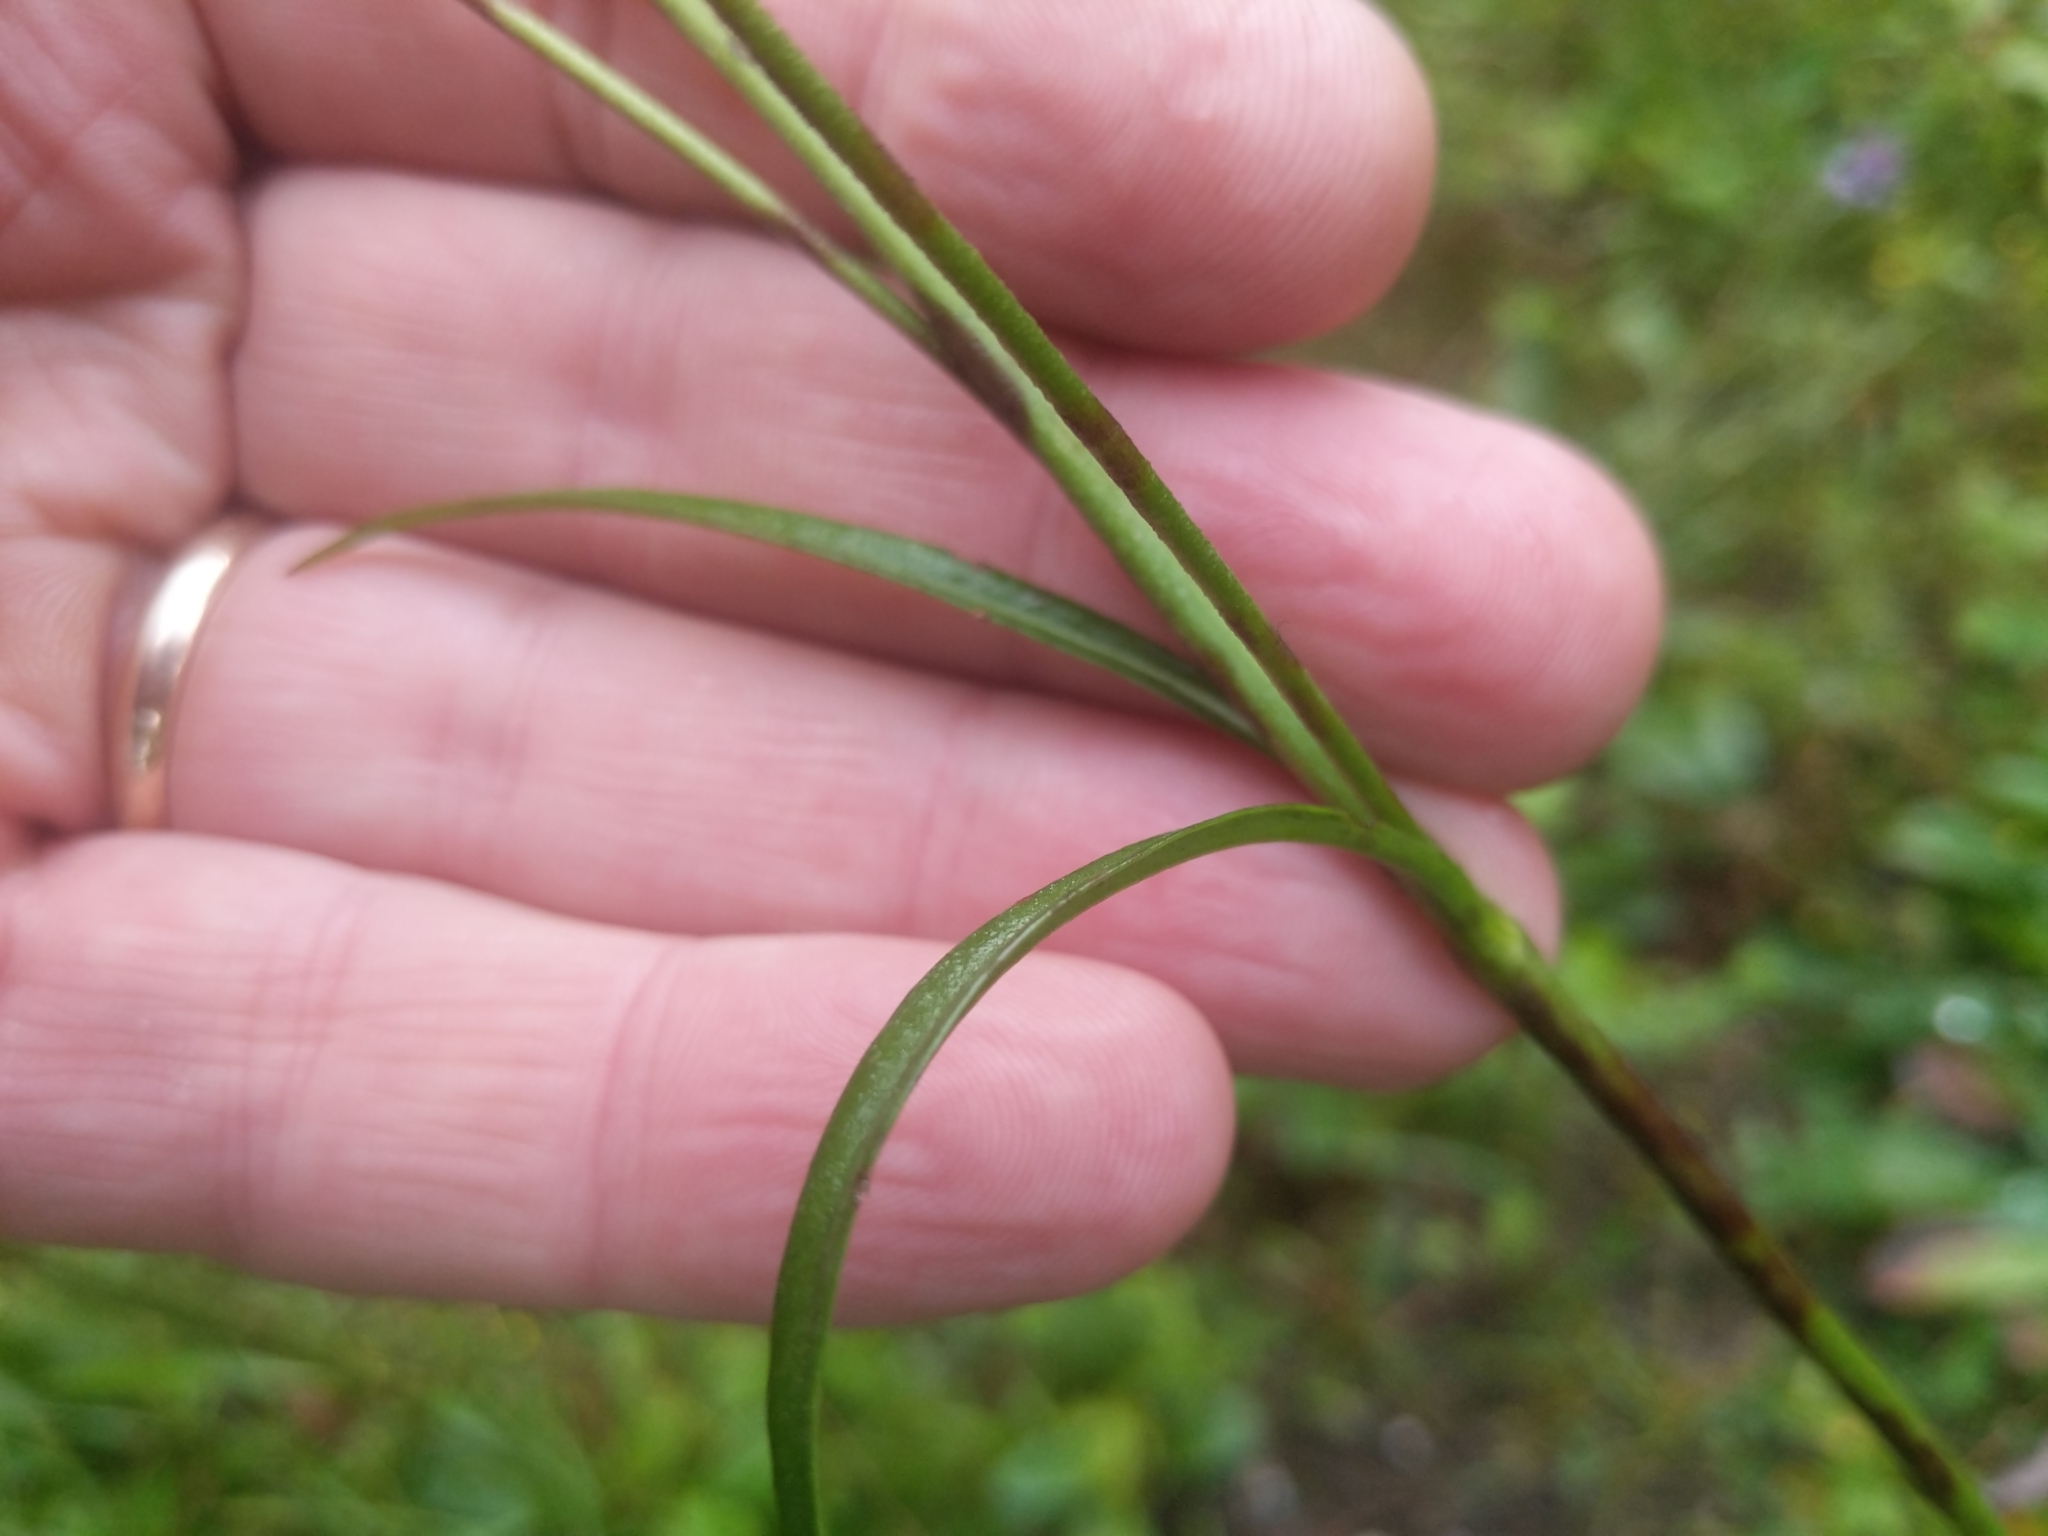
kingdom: Plantae
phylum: Tracheophyta
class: Magnoliopsida
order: Dipsacales
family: Caprifoliaceae
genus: Succisa
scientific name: Succisa pratensis
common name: Devil's-bit
